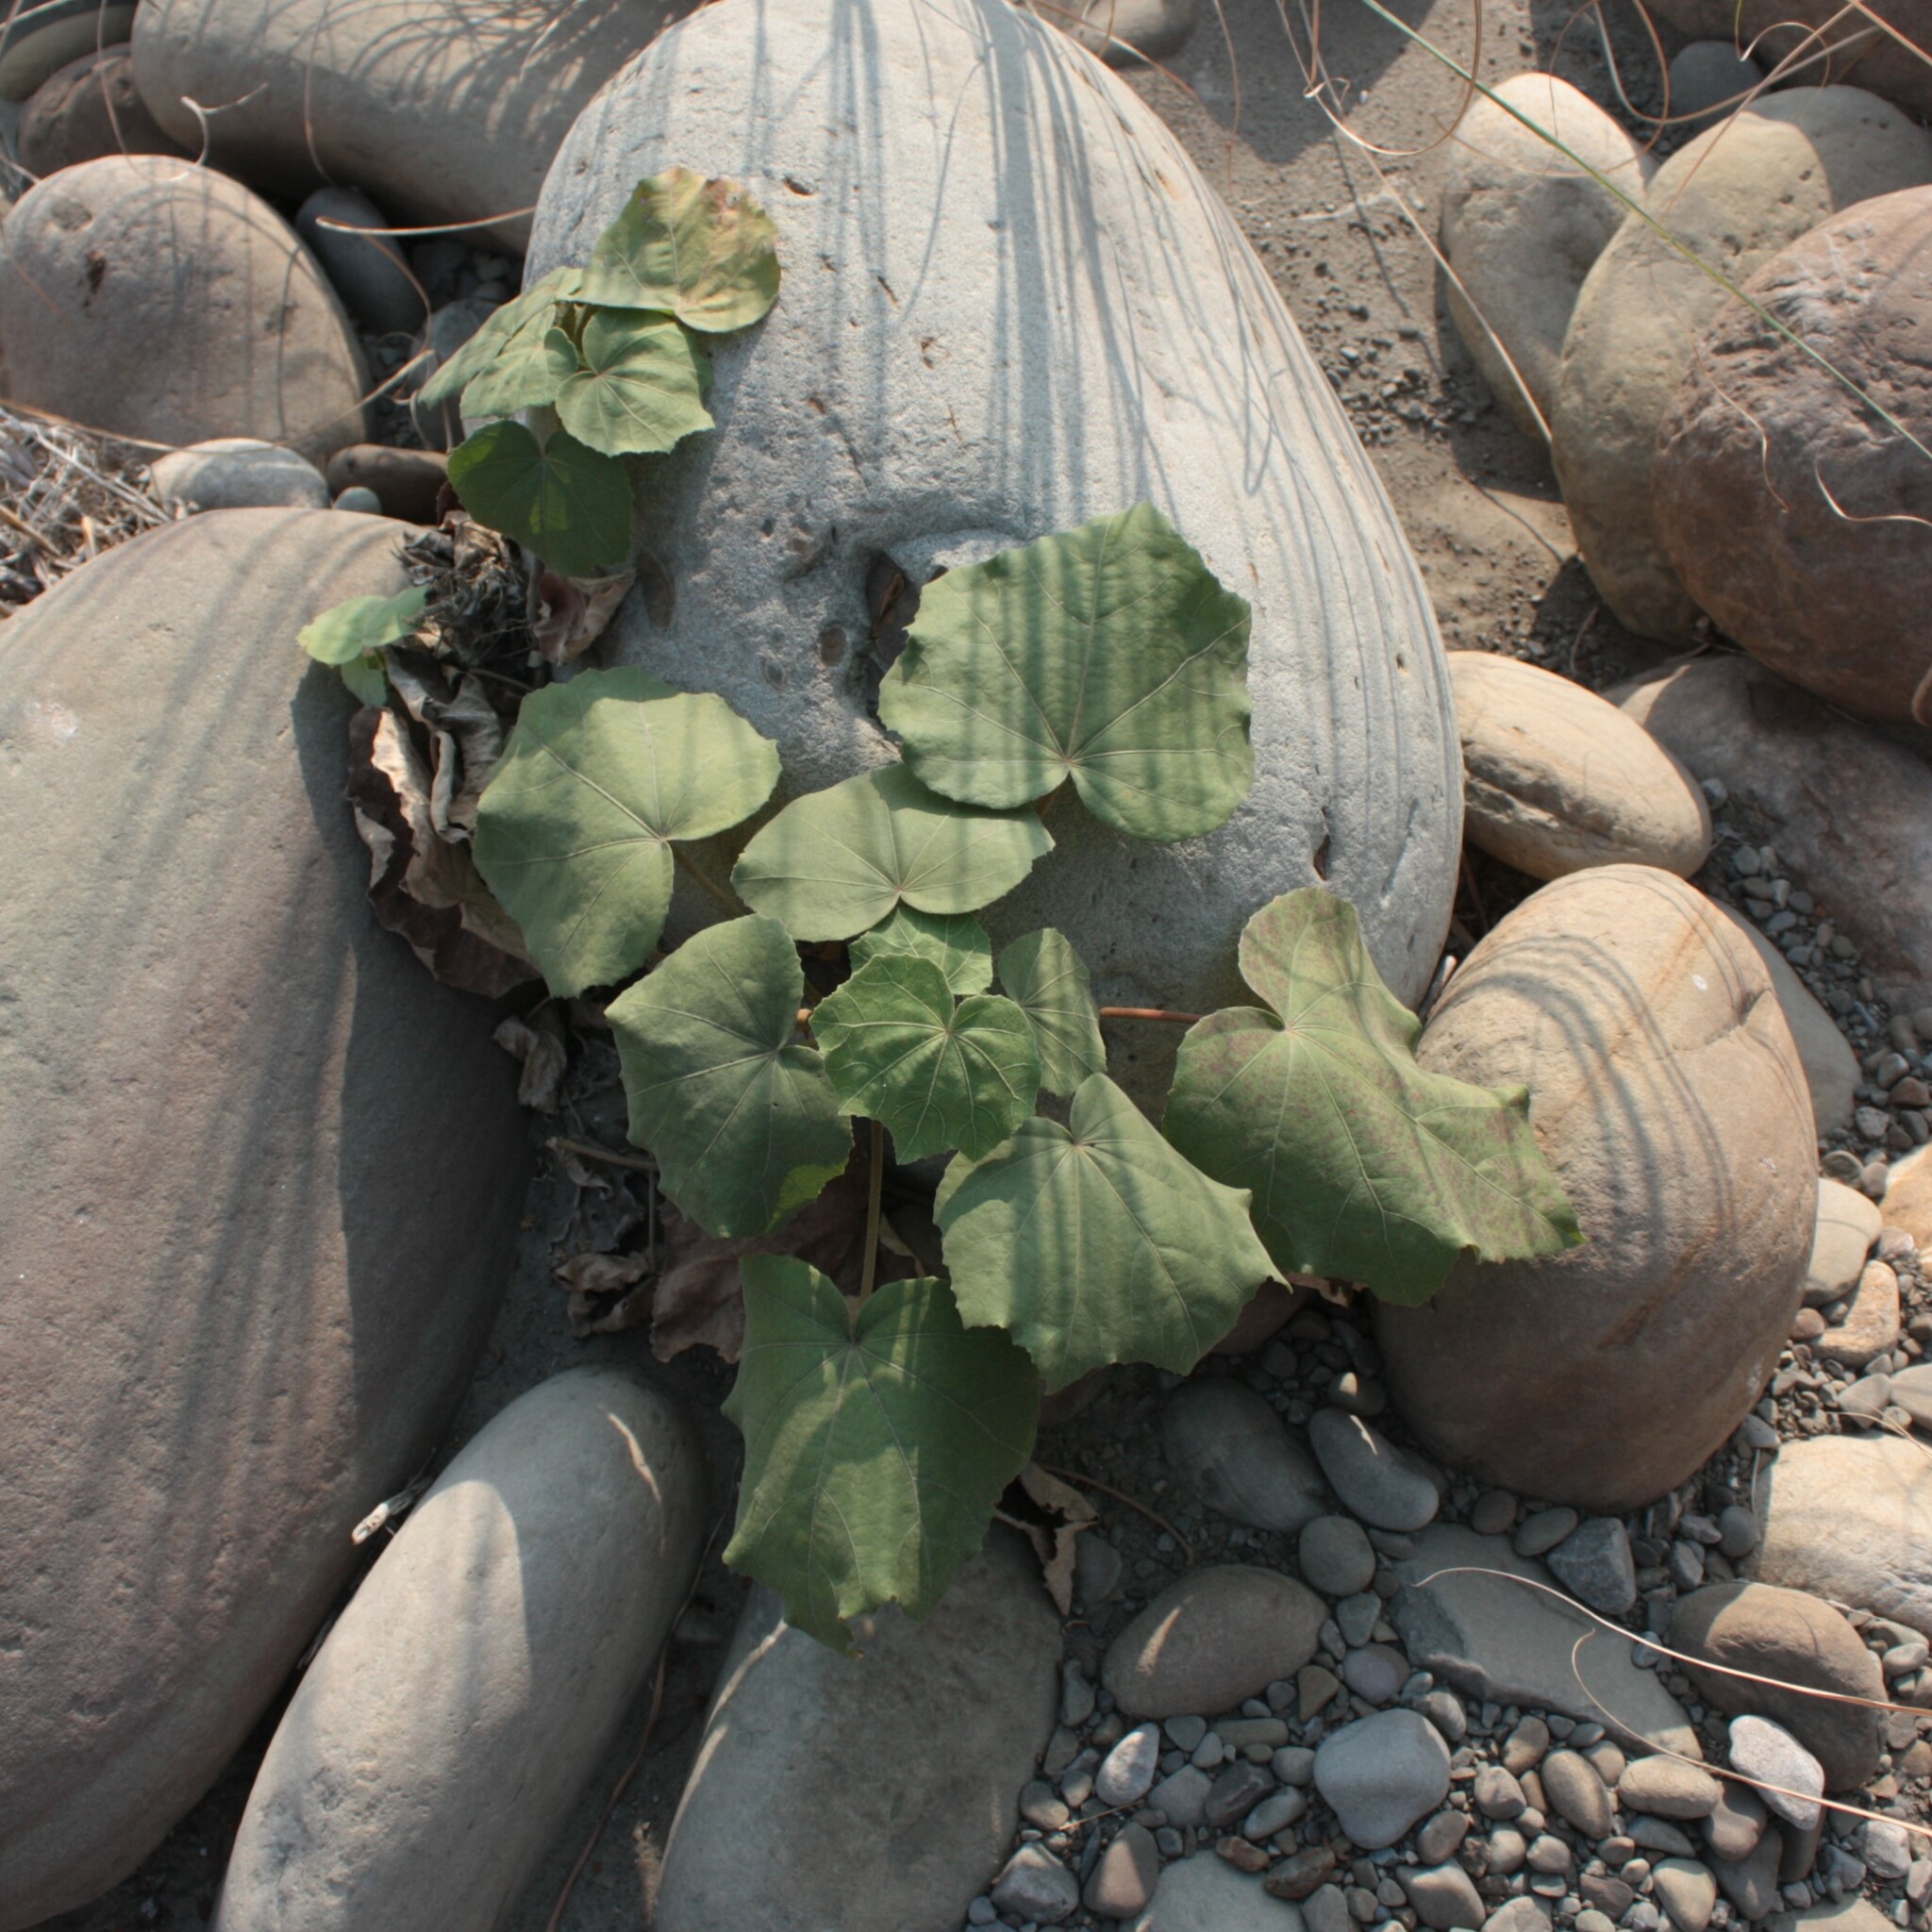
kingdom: Plantae
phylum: Tracheophyta
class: Magnoliopsida
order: Malvales
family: Malvaceae
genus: Hibiscus
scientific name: Hibiscus taiwanensis
